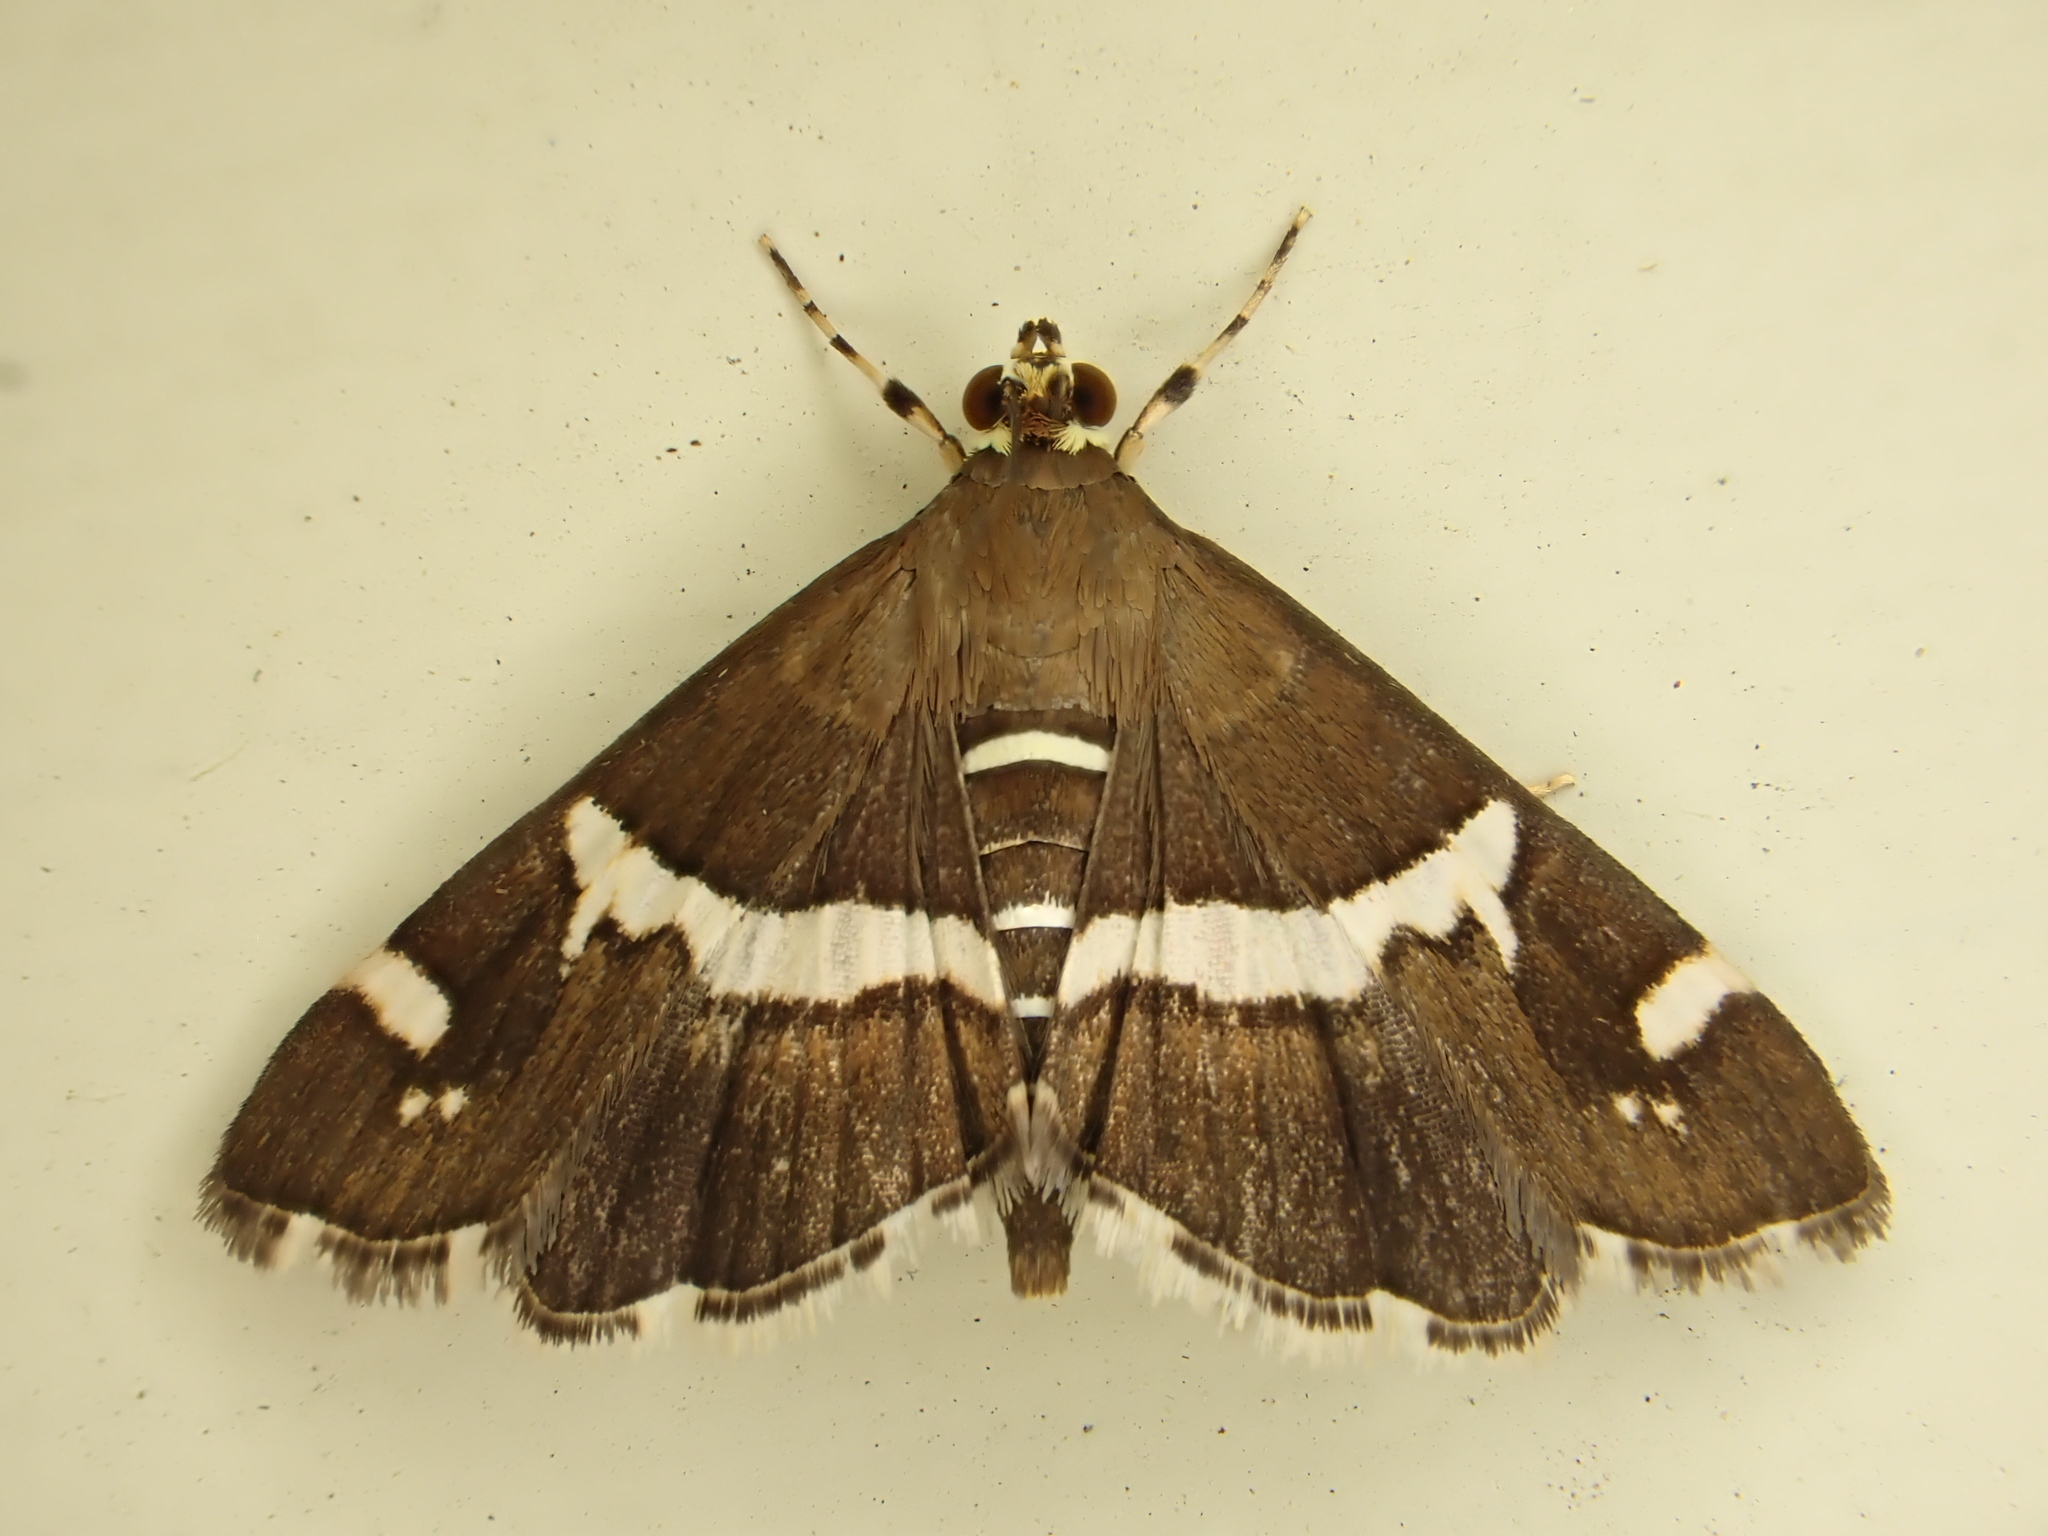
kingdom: Animalia
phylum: Arthropoda
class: Insecta
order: Lepidoptera
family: Crambidae
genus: Spoladea
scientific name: Spoladea recurvalis
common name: Beet webworm moth
